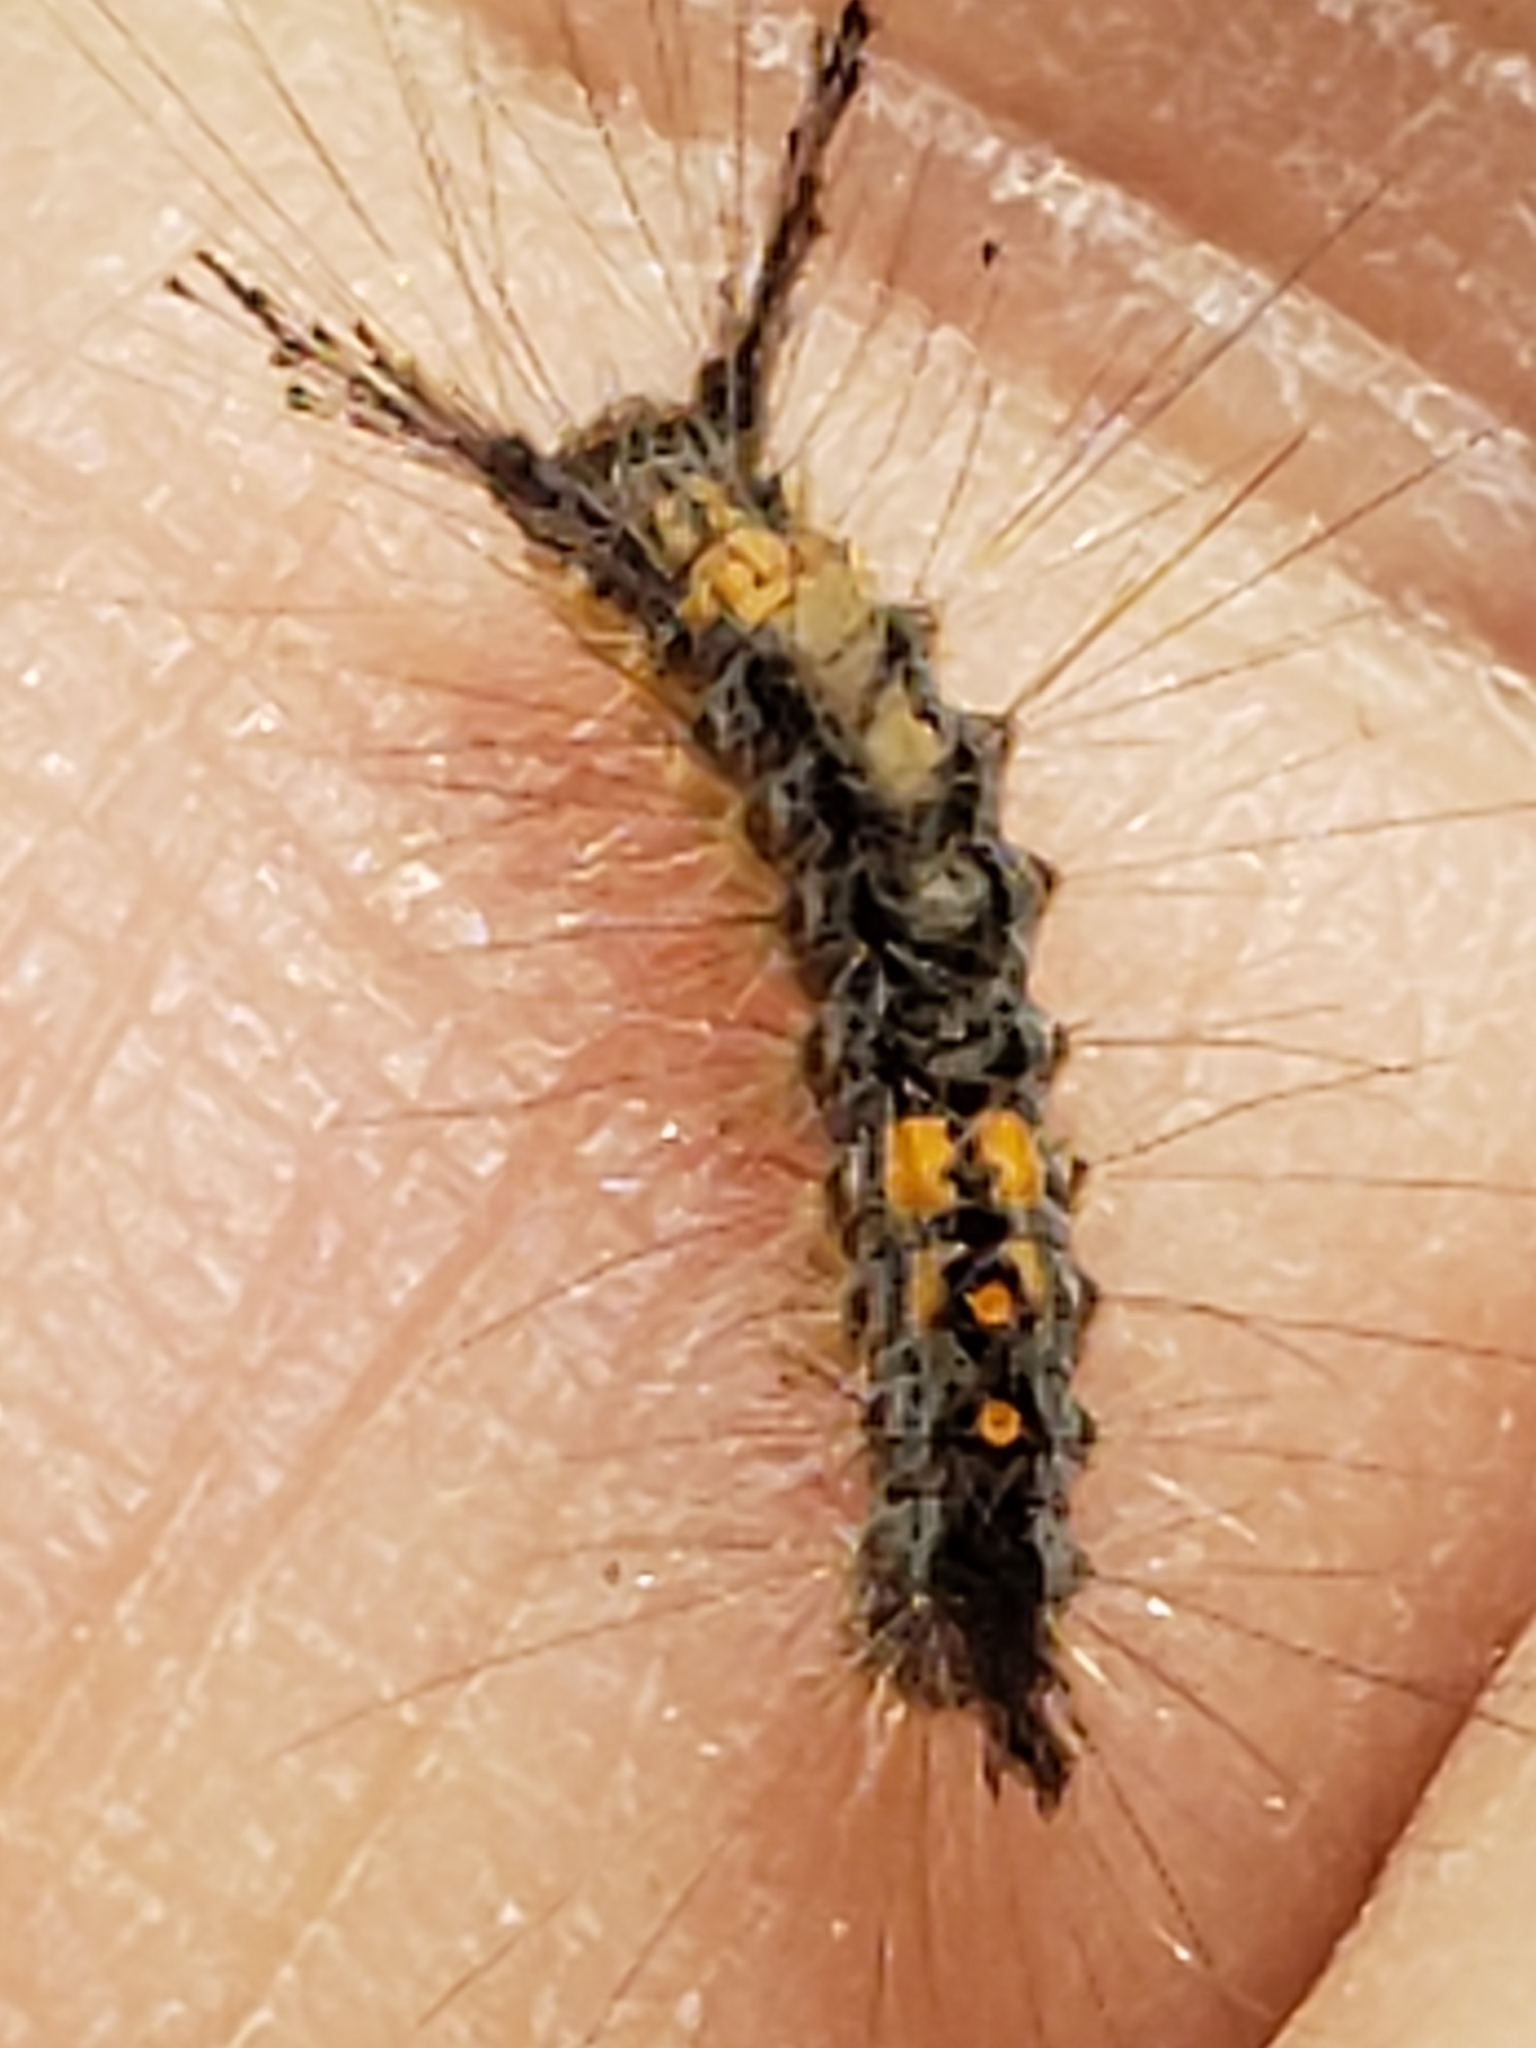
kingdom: Animalia
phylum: Arthropoda
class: Insecta
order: Lepidoptera
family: Erebidae
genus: Orgyia
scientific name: Orgyia detrita
